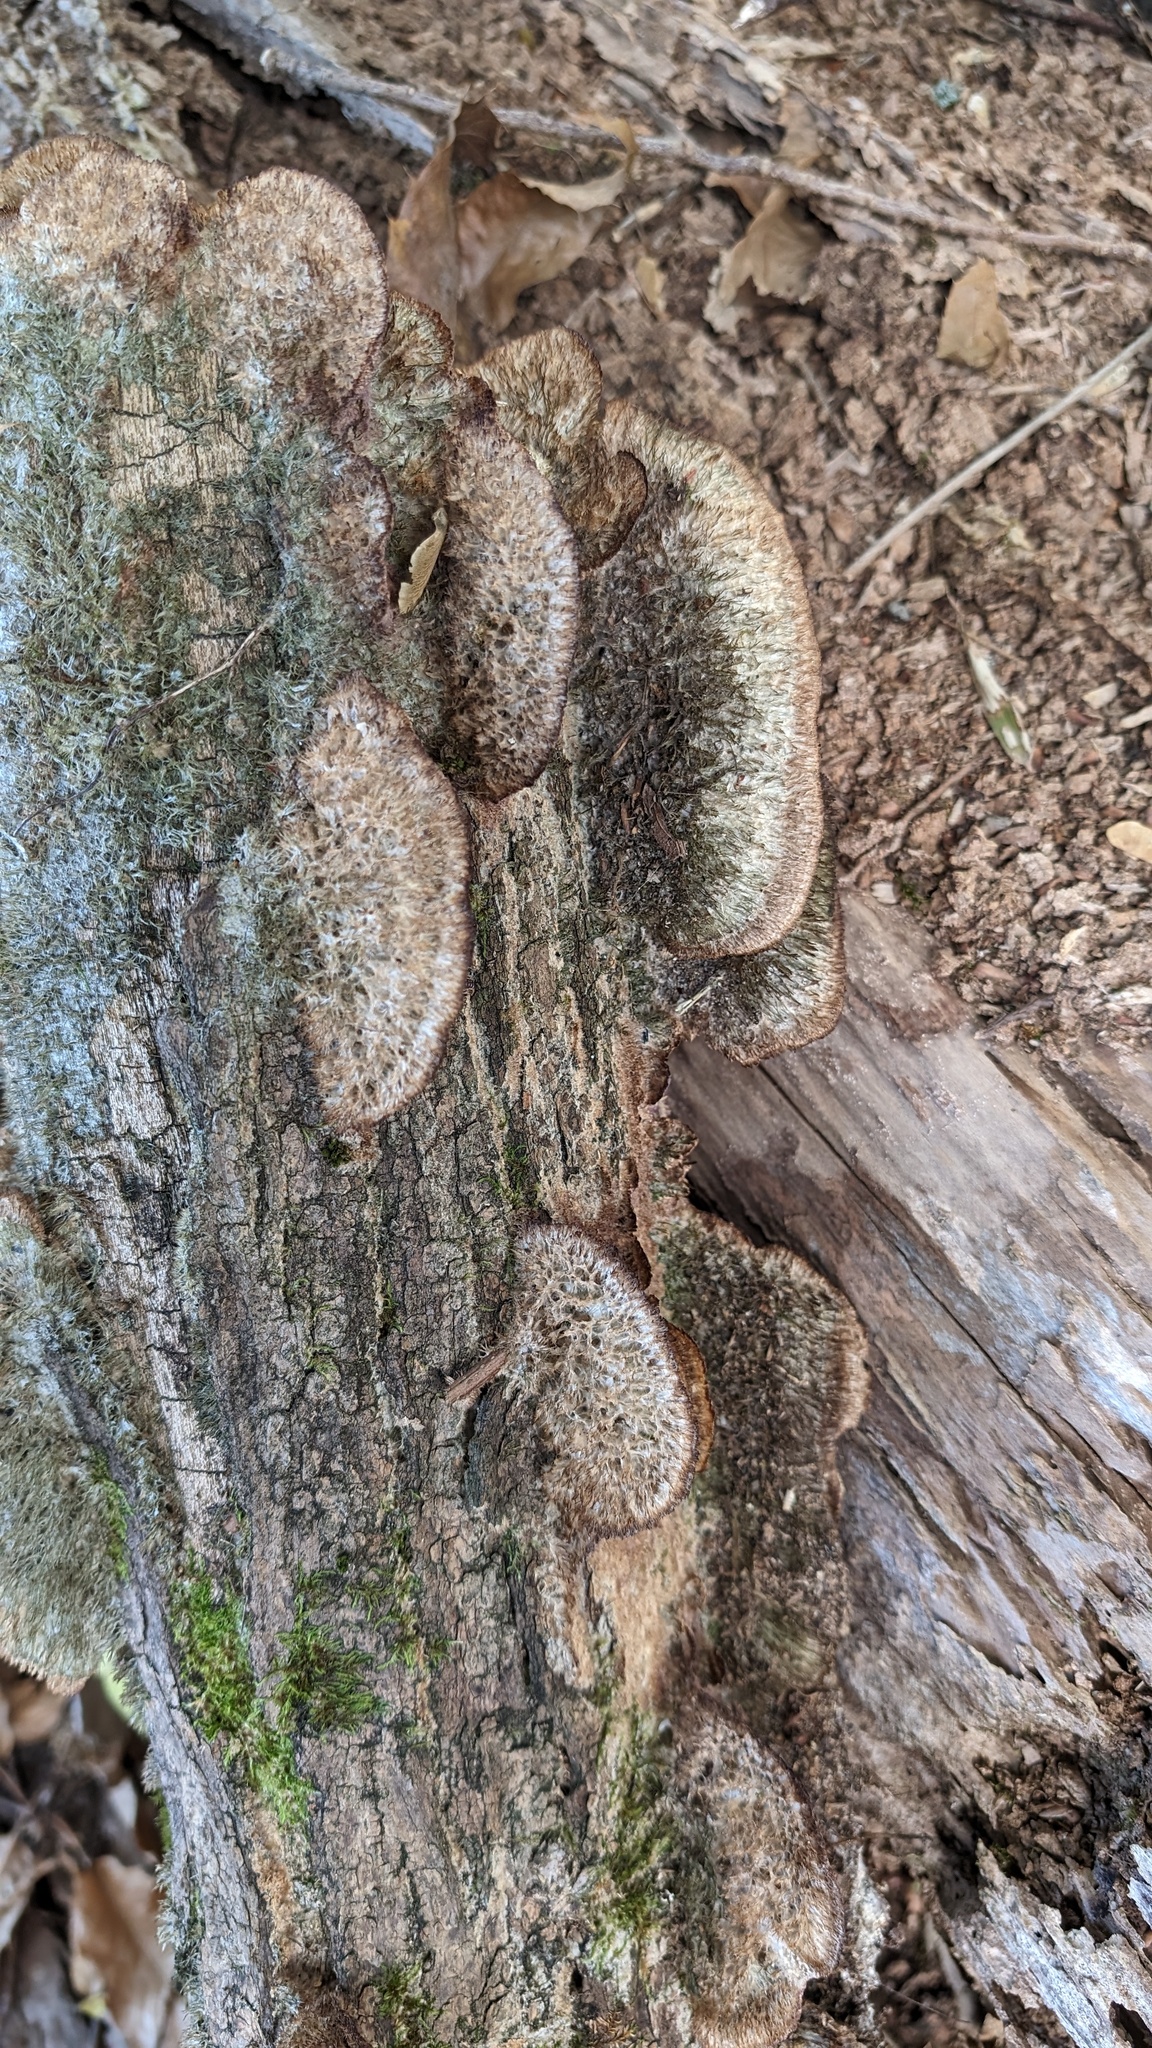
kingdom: Fungi
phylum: Basidiomycota
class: Agaricomycetes
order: Hymenochaetales
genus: Trichaptum
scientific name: Trichaptum byssogenum
